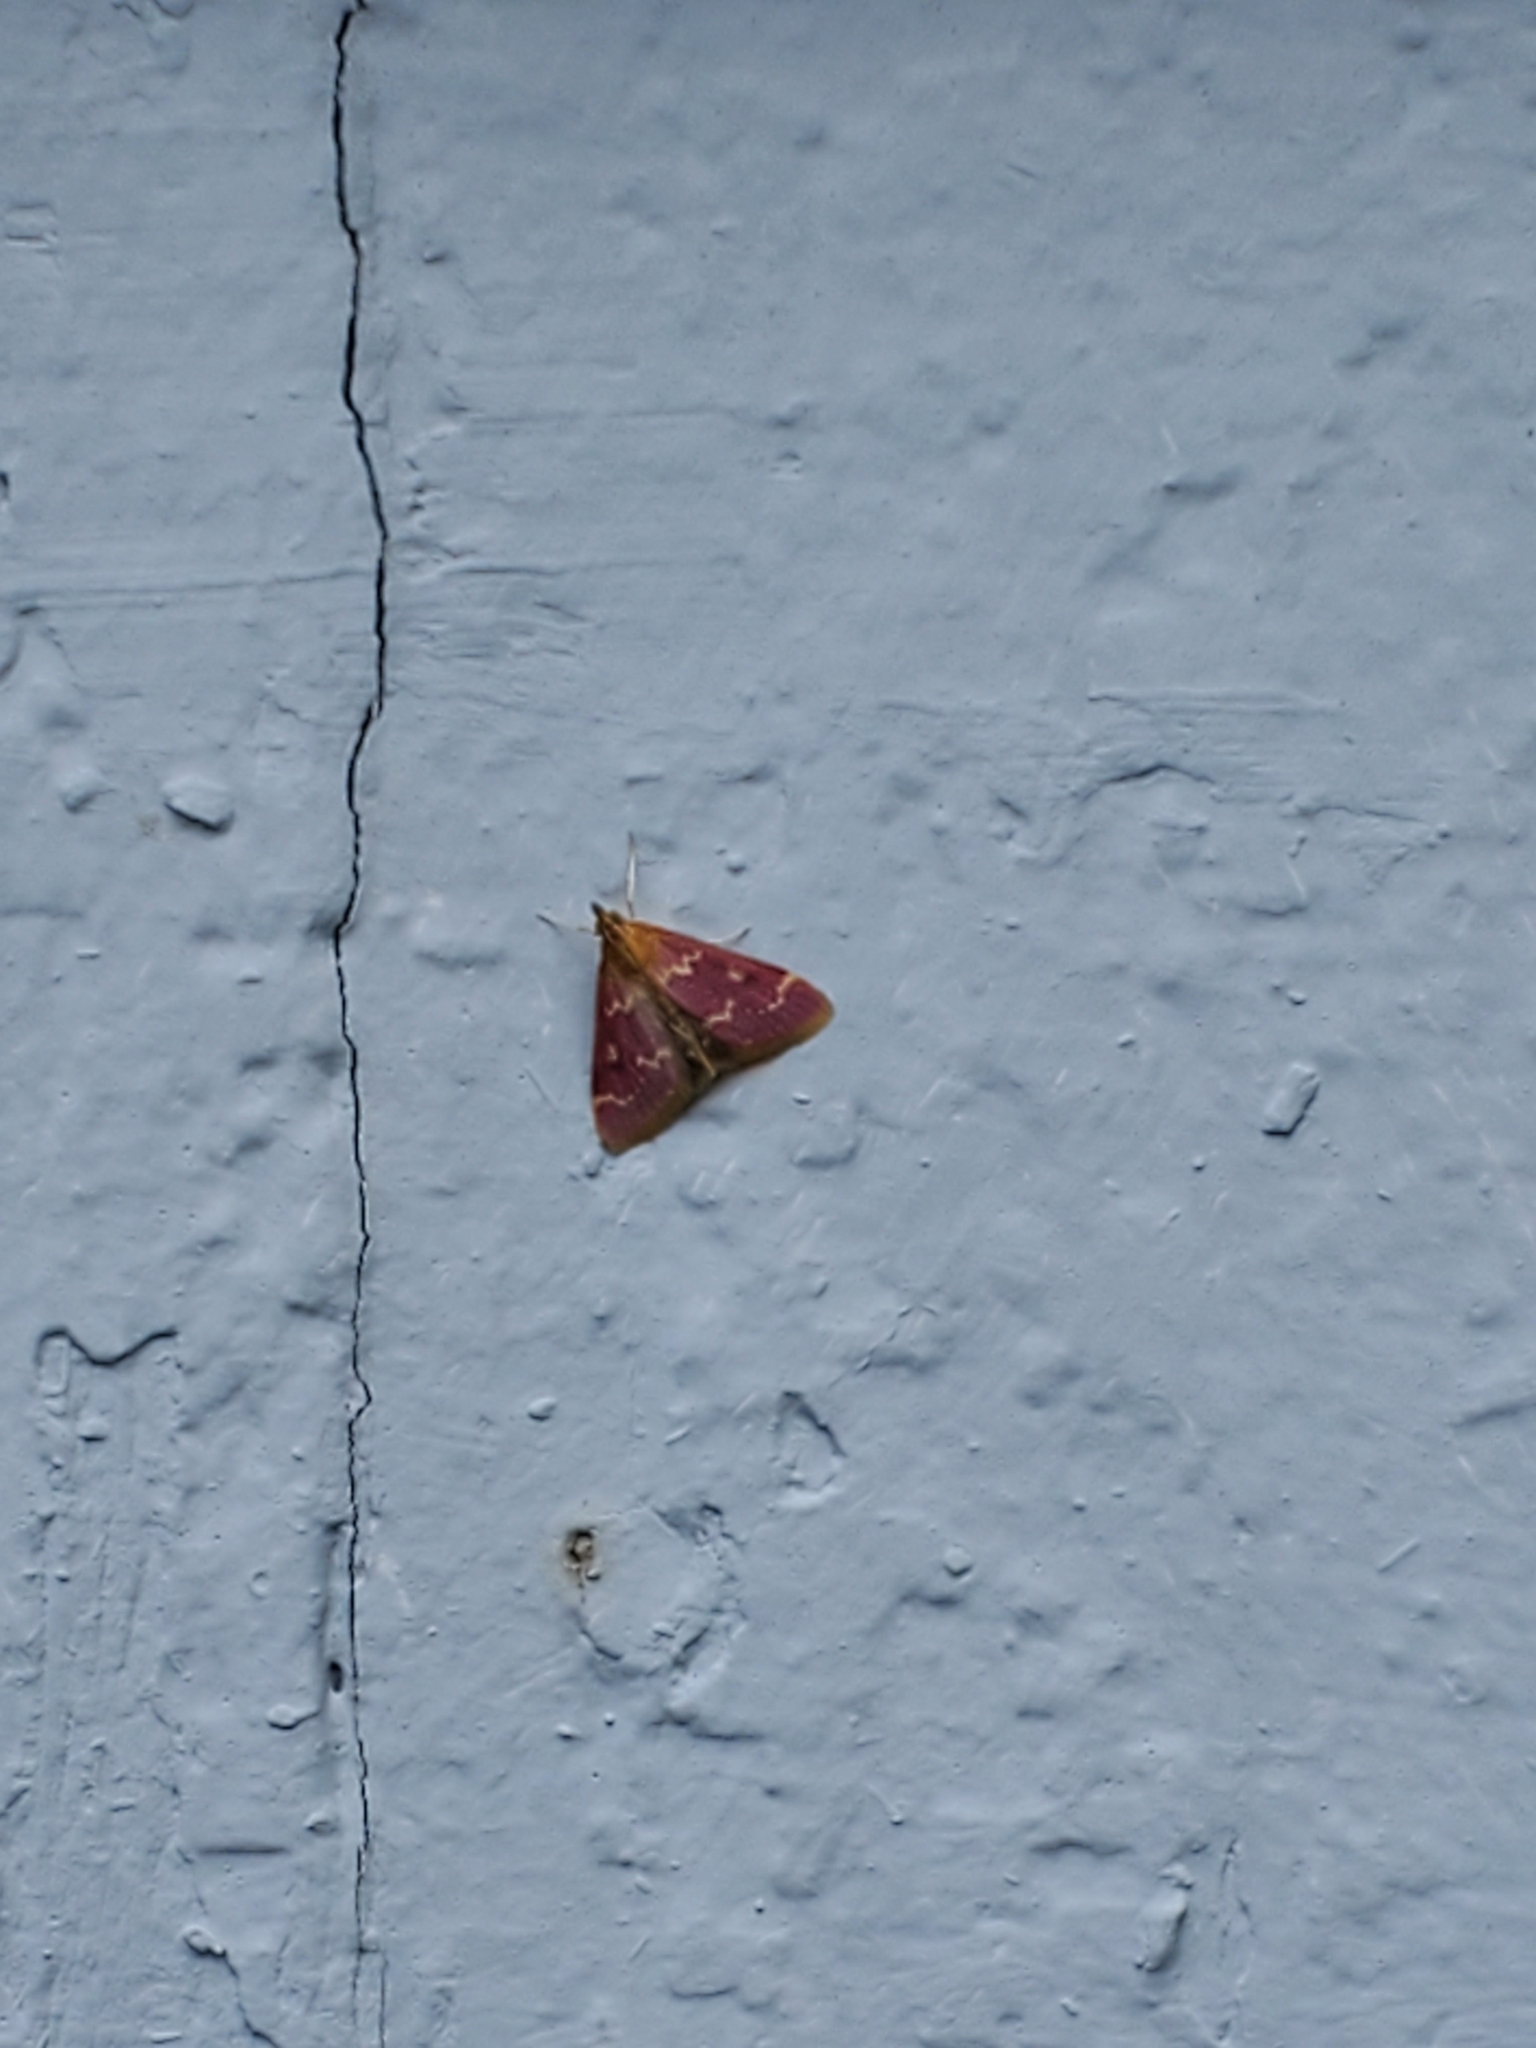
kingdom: Animalia
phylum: Arthropoda
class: Insecta
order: Lepidoptera
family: Crambidae
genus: Pyrausta
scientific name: Pyrausta signatalis
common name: Raspberry pyrausta moth
